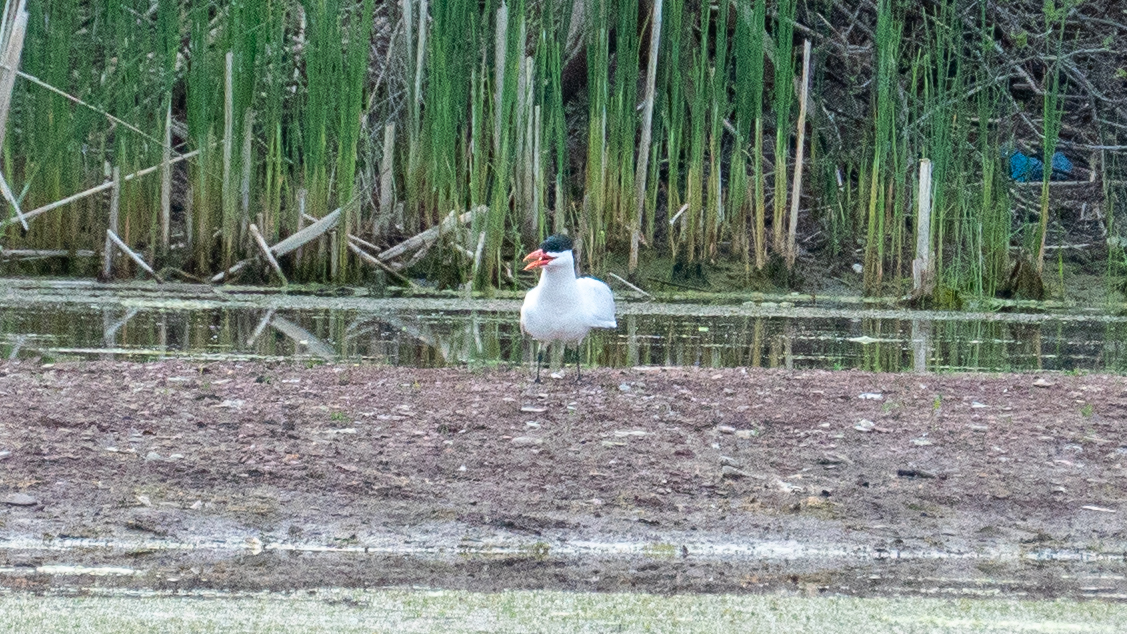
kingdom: Animalia
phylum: Chordata
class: Aves
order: Charadriiformes
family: Laridae
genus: Hydroprogne
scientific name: Hydroprogne caspia
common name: Caspian tern
